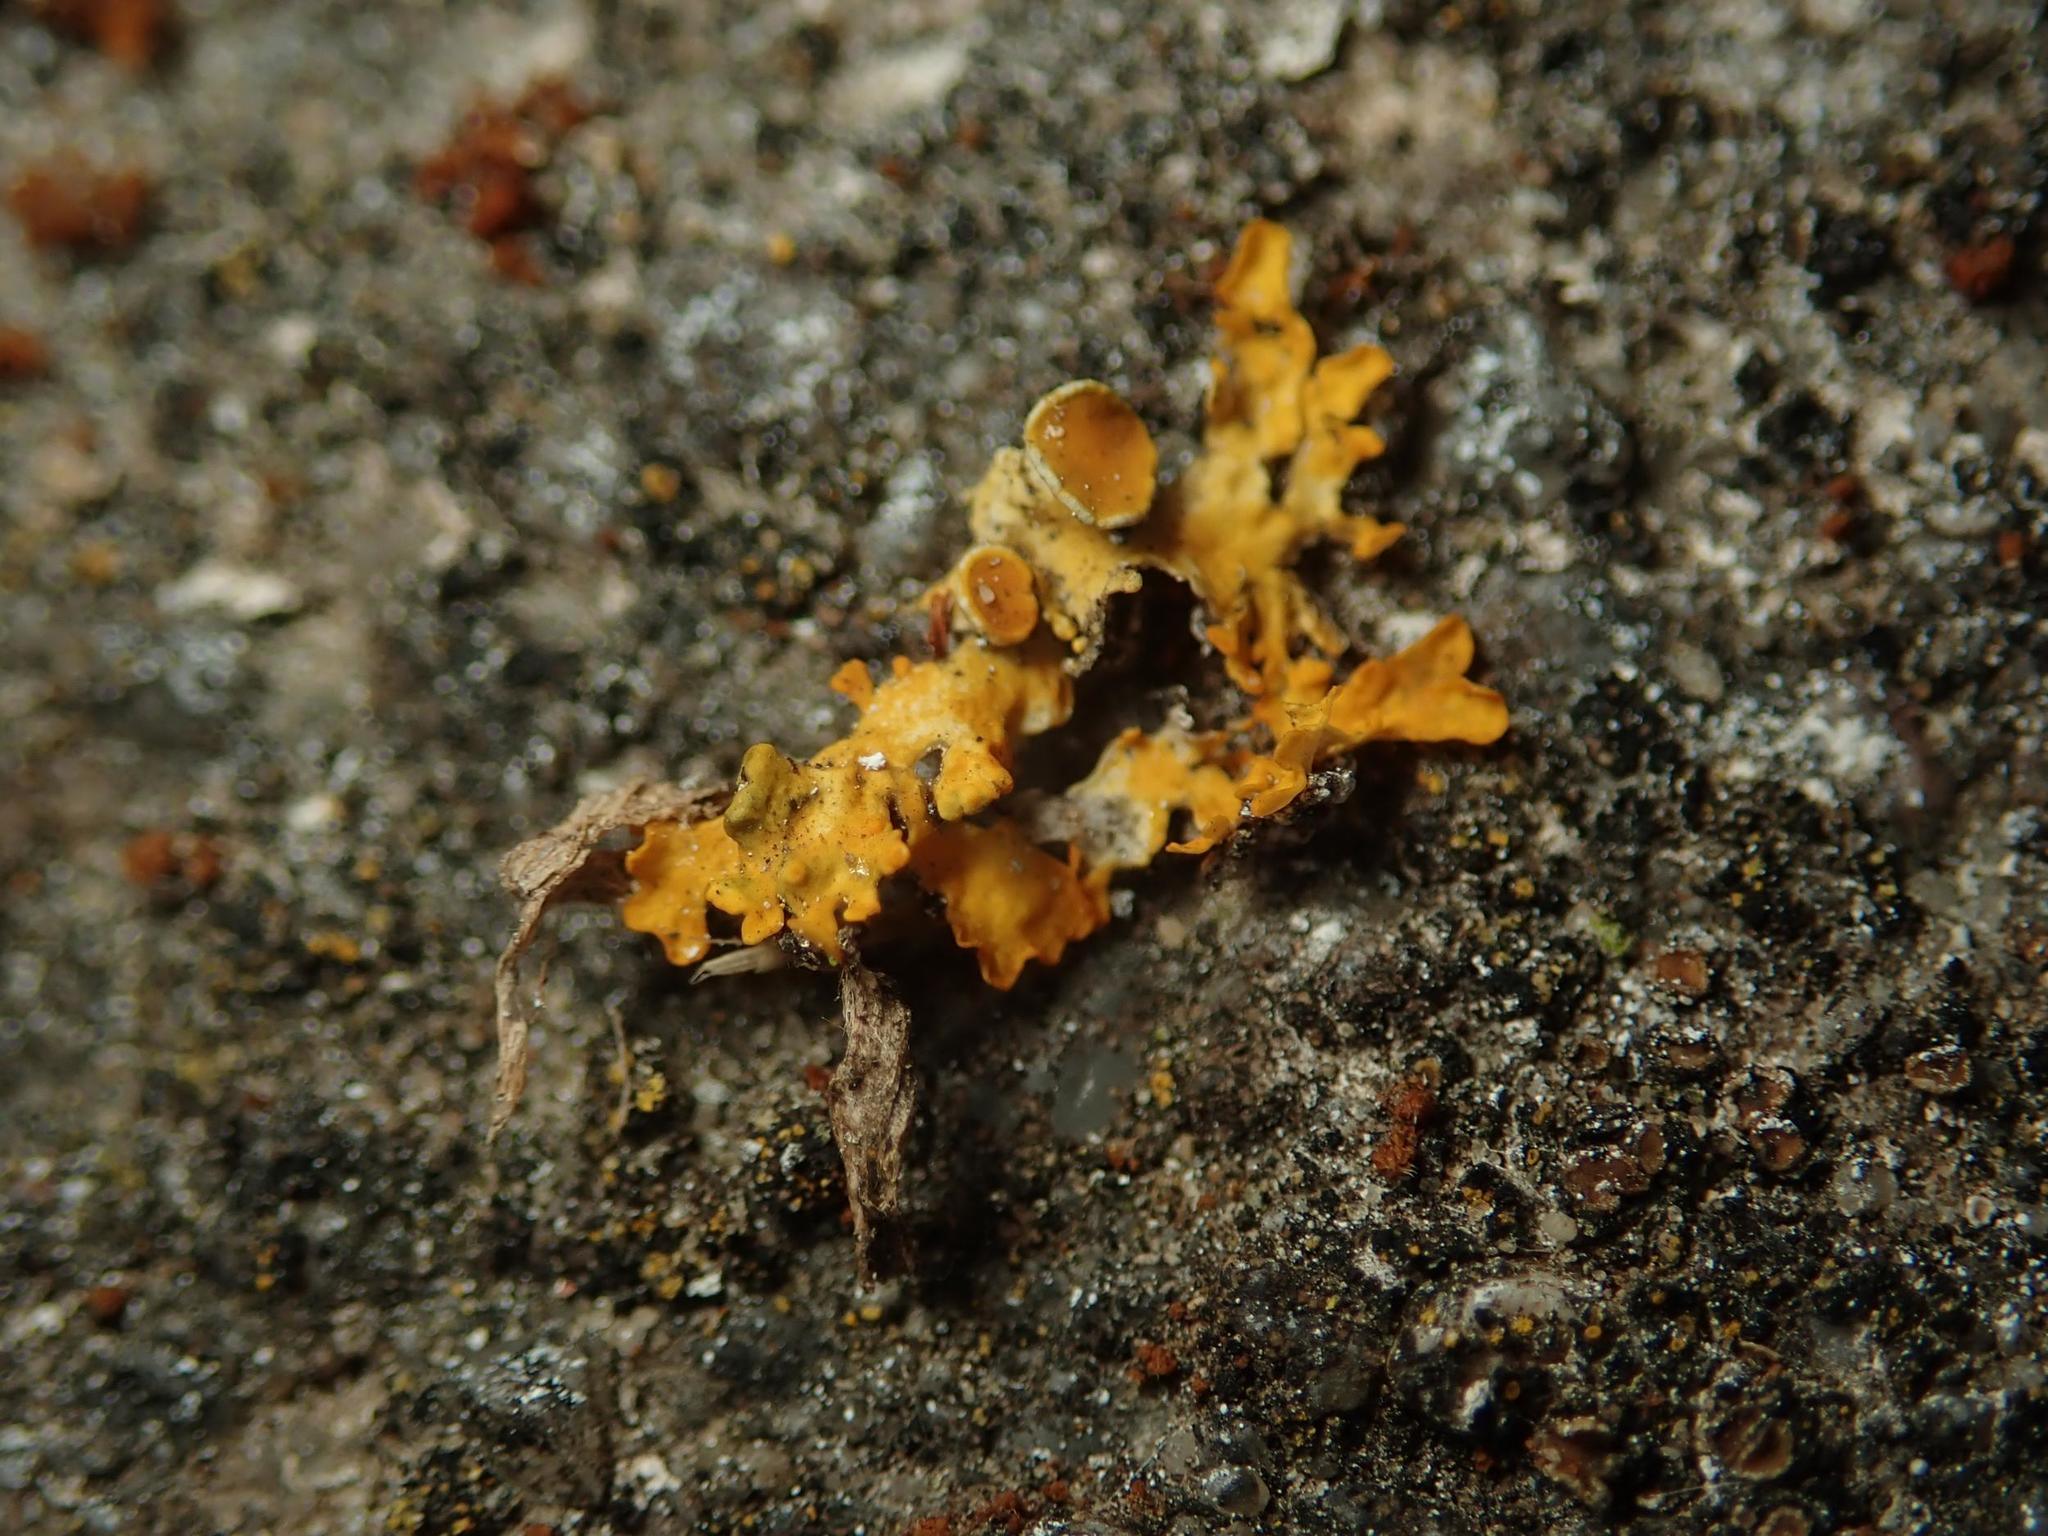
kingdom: Fungi
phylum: Ascomycota
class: Lecanoromycetes
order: Teloschistales
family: Teloschistaceae
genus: Xanthoria
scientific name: Xanthoria parietina
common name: Common orange lichen
